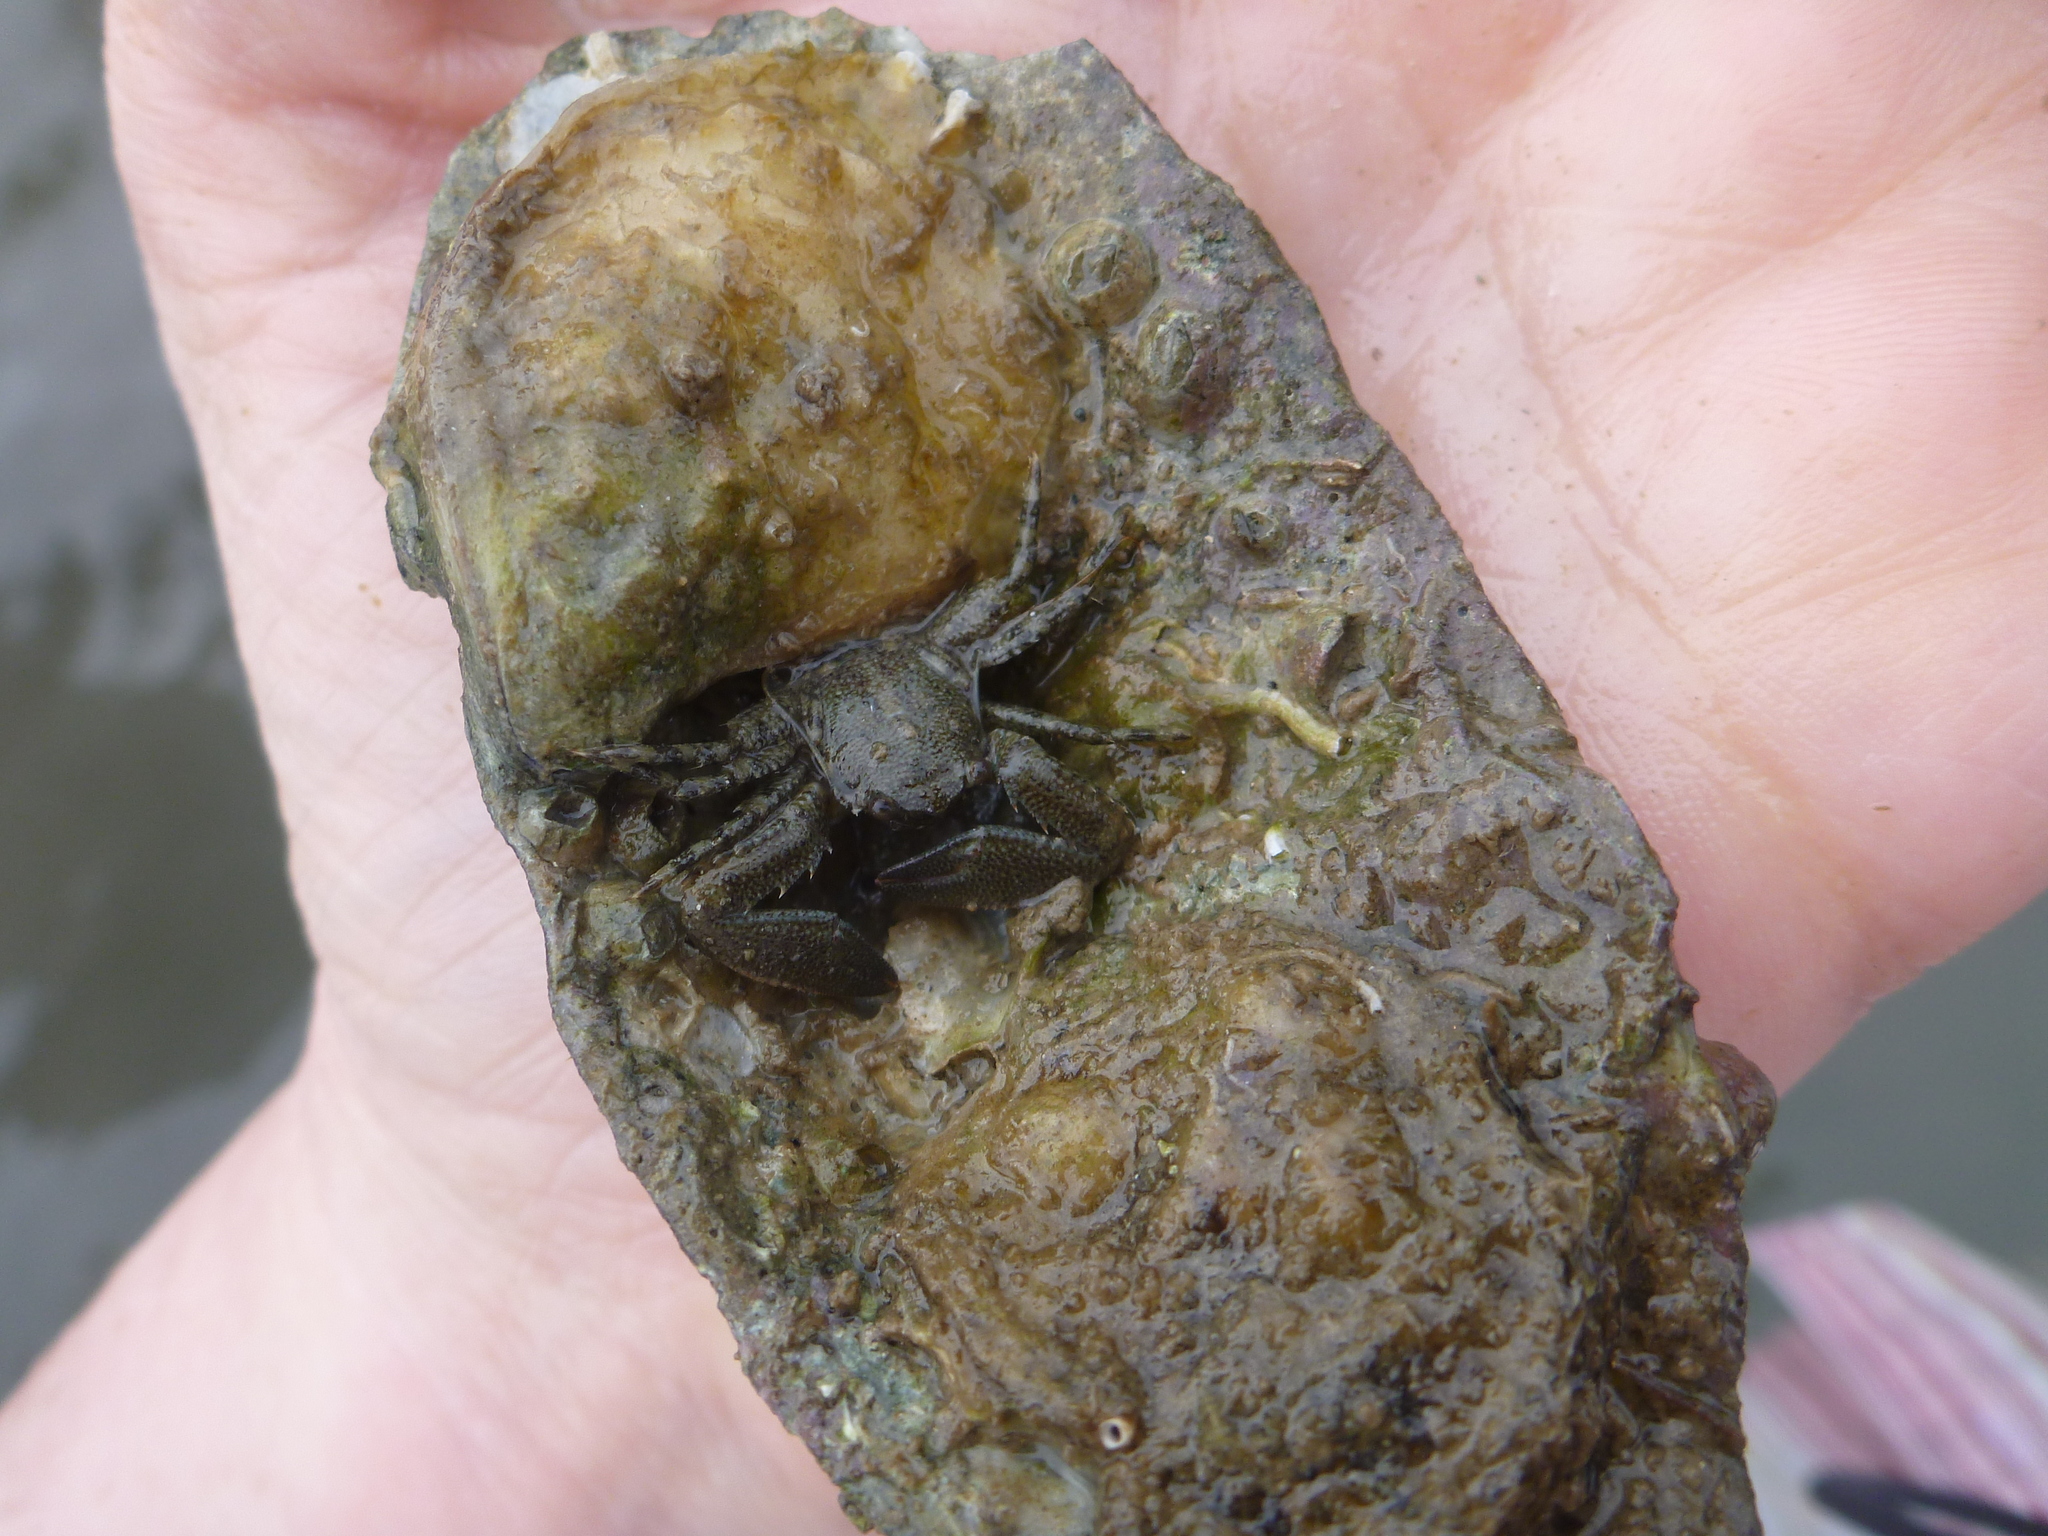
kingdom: Animalia
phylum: Arthropoda
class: Malacostraca
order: Decapoda
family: Porcellanidae
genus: Petrolisthes
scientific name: Petrolisthes armatus
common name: Green porcelain crab
